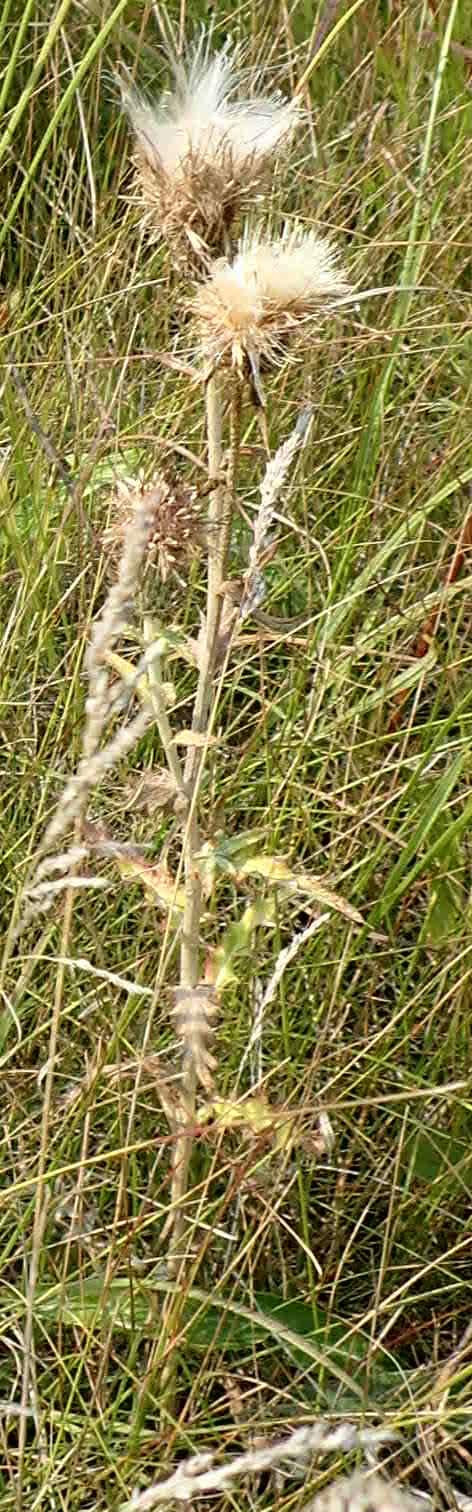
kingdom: Plantae
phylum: Tracheophyta
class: Magnoliopsida
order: Asterales
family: Asteraceae
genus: Cirsium
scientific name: Cirsium flodmanii
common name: Flodman's thistle
